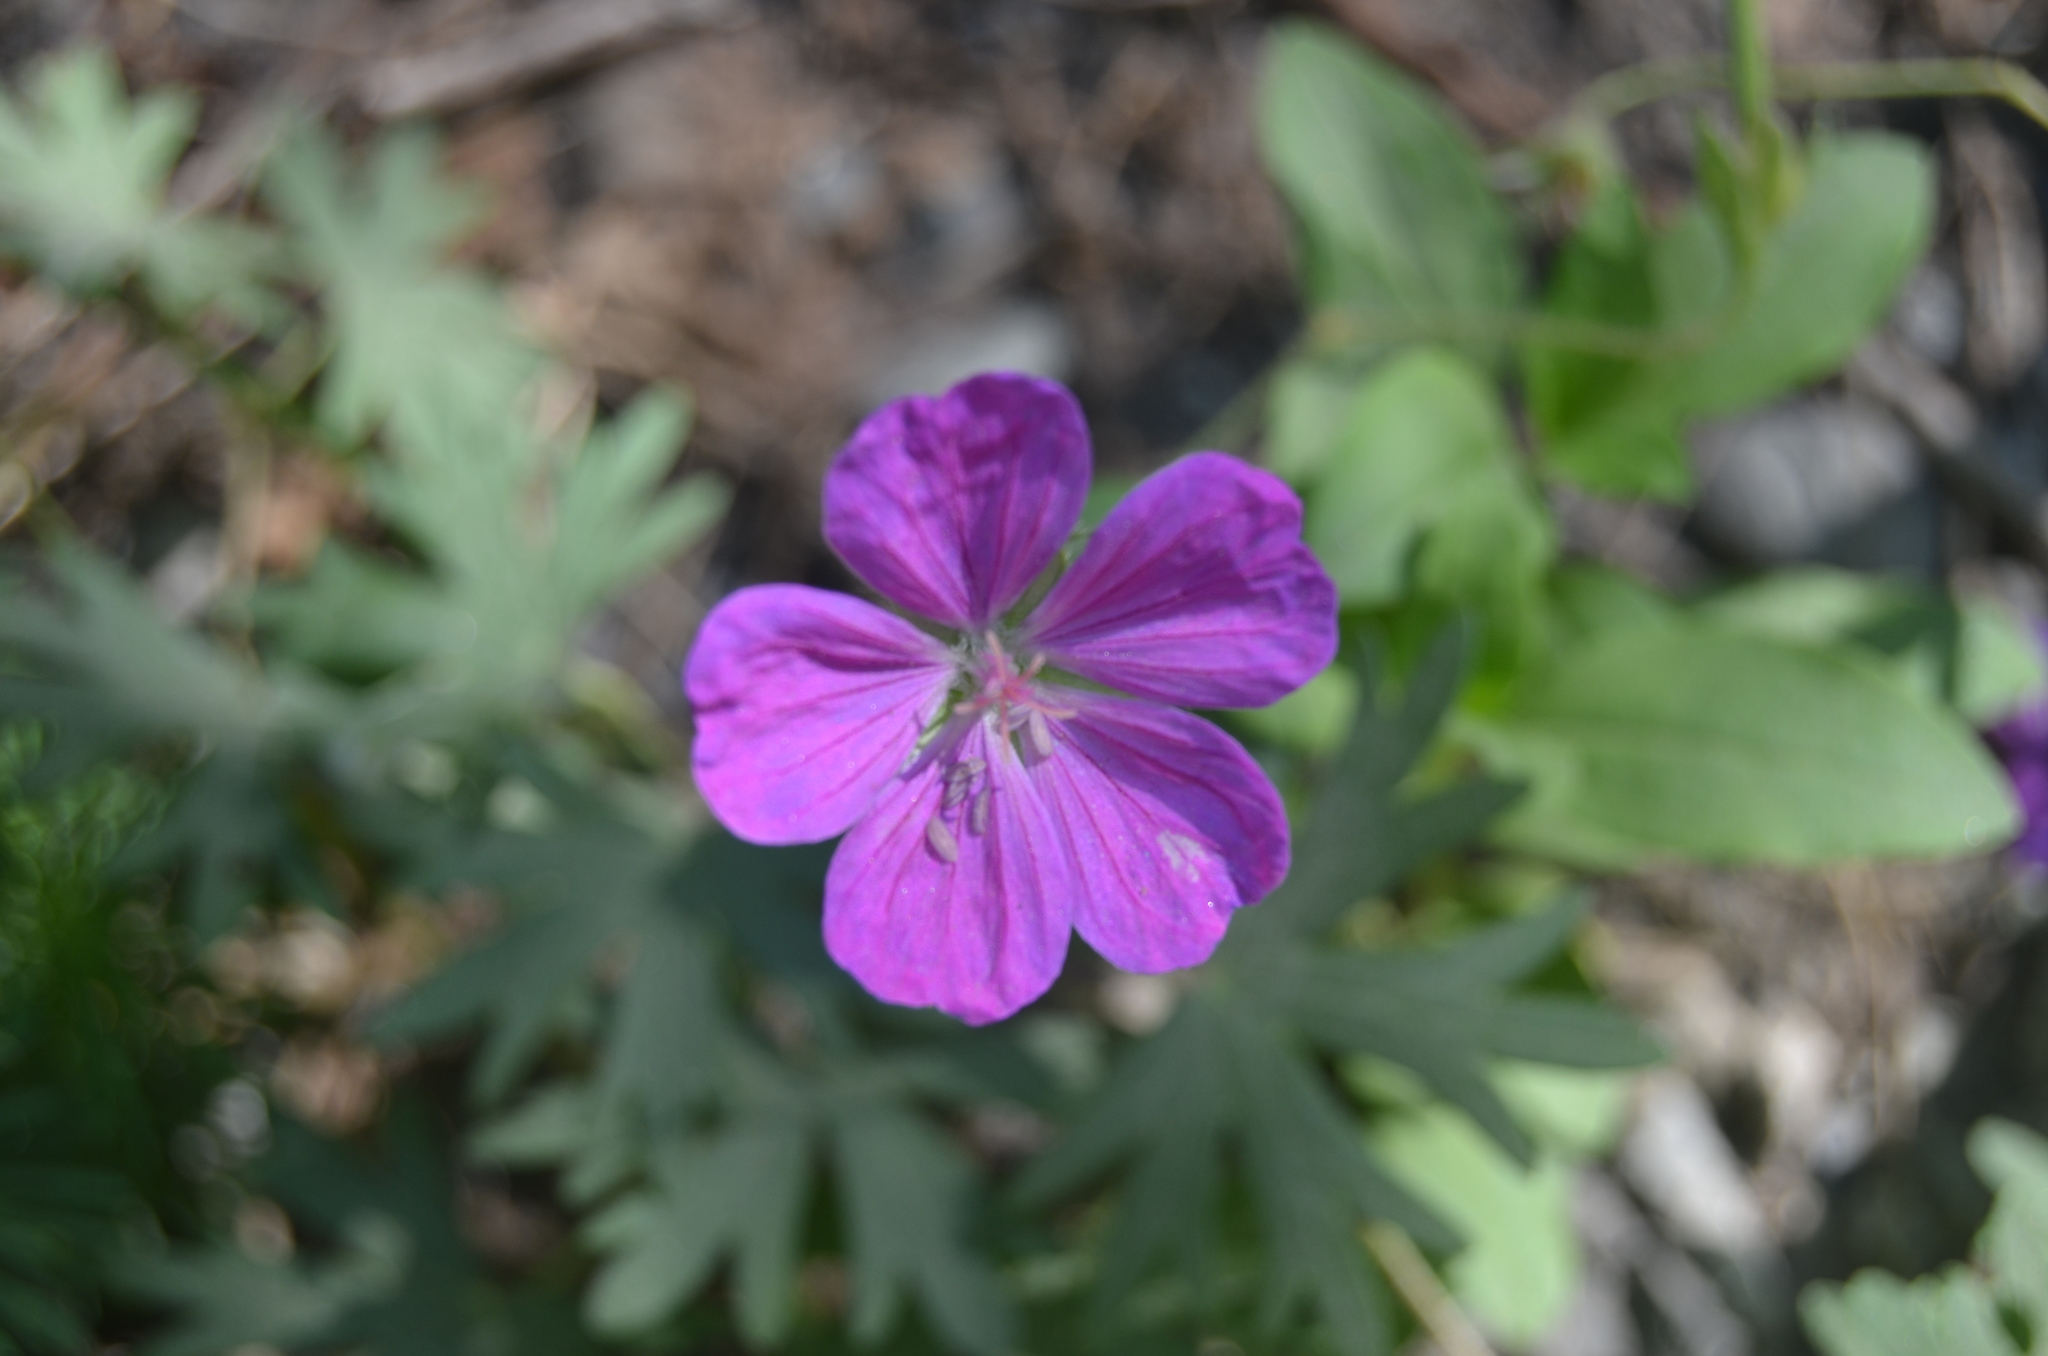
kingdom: Plantae
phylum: Tracheophyta
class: Magnoliopsida
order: Geraniales
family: Geraniaceae
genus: Geranium
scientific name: Geranium sanguineum
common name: Bloody crane's-bill
